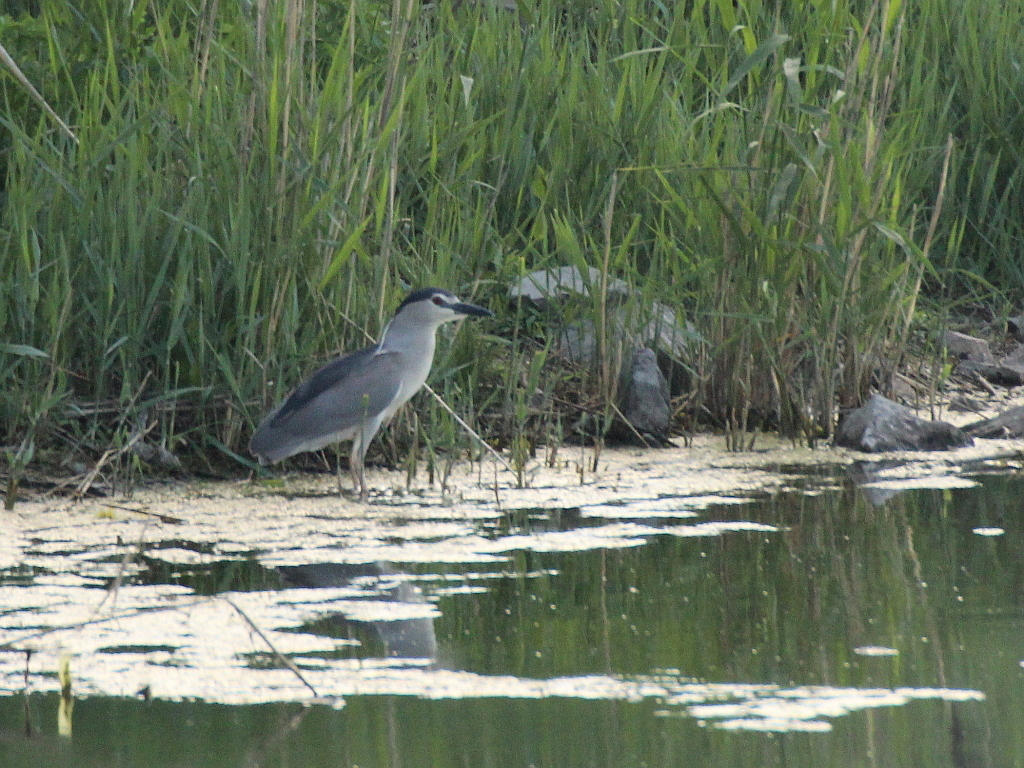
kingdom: Animalia
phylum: Chordata
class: Aves
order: Pelecaniformes
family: Ardeidae
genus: Nycticorax
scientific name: Nycticorax nycticorax
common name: Black-crowned night heron
